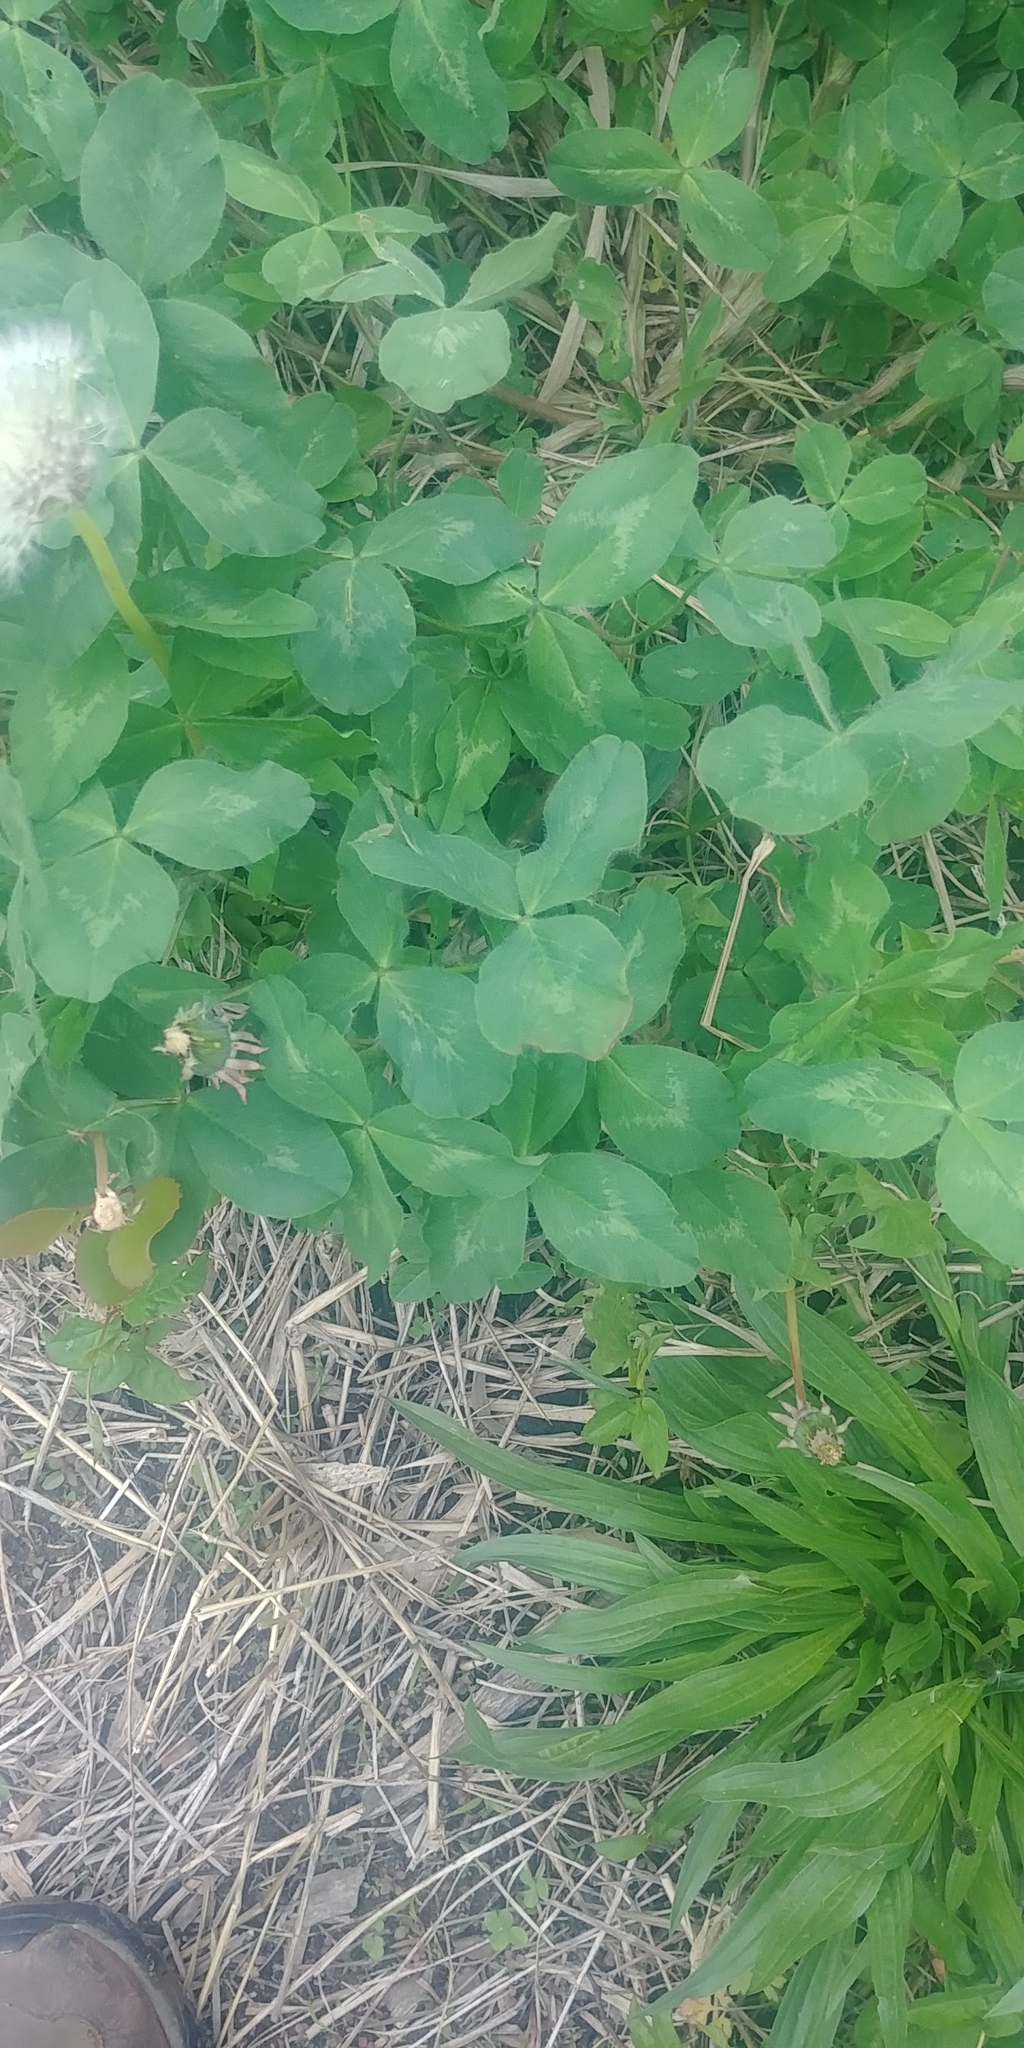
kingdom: Plantae
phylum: Tracheophyta
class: Magnoliopsida
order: Fabales
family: Fabaceae
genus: Trifolium
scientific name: Trifolium pratense
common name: Red clover
